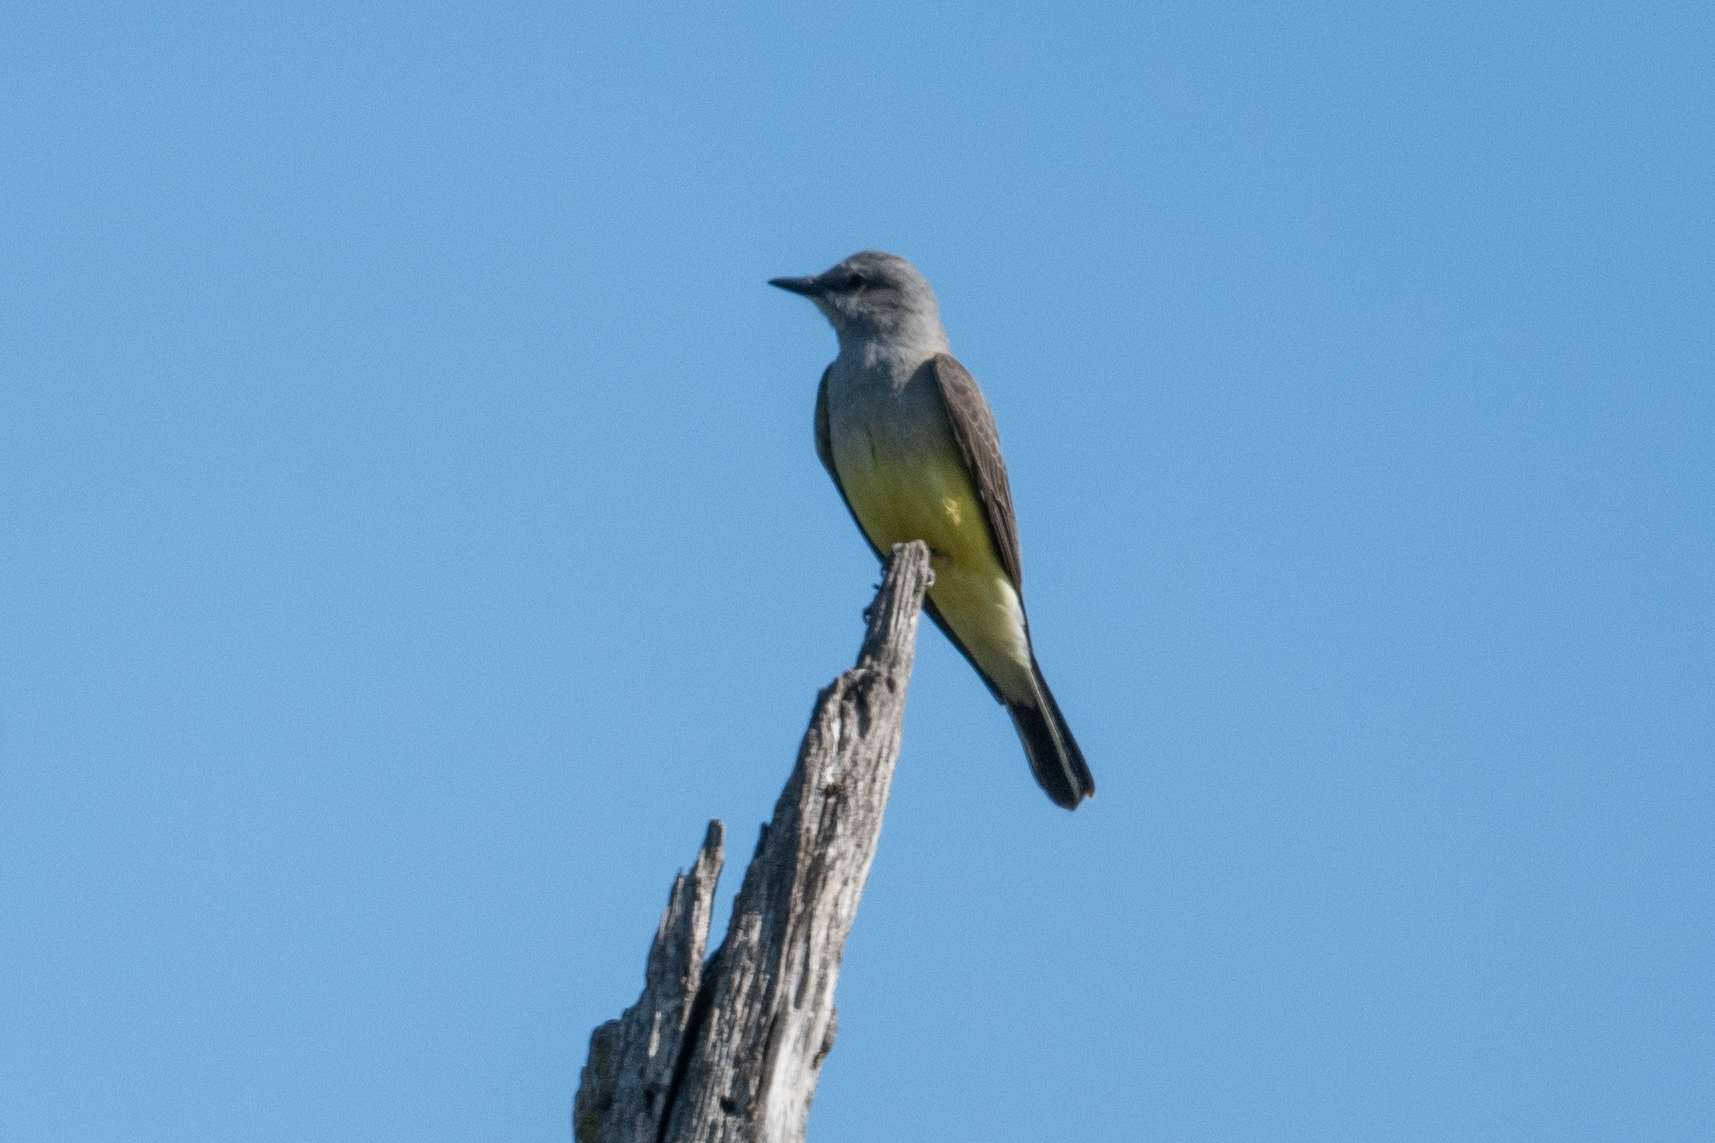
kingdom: Animalia
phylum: Chordata
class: Aves
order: Passeriformes
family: Tyrannidae
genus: Tyrannus
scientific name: Tyrannus verticalis
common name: Western kingbird
